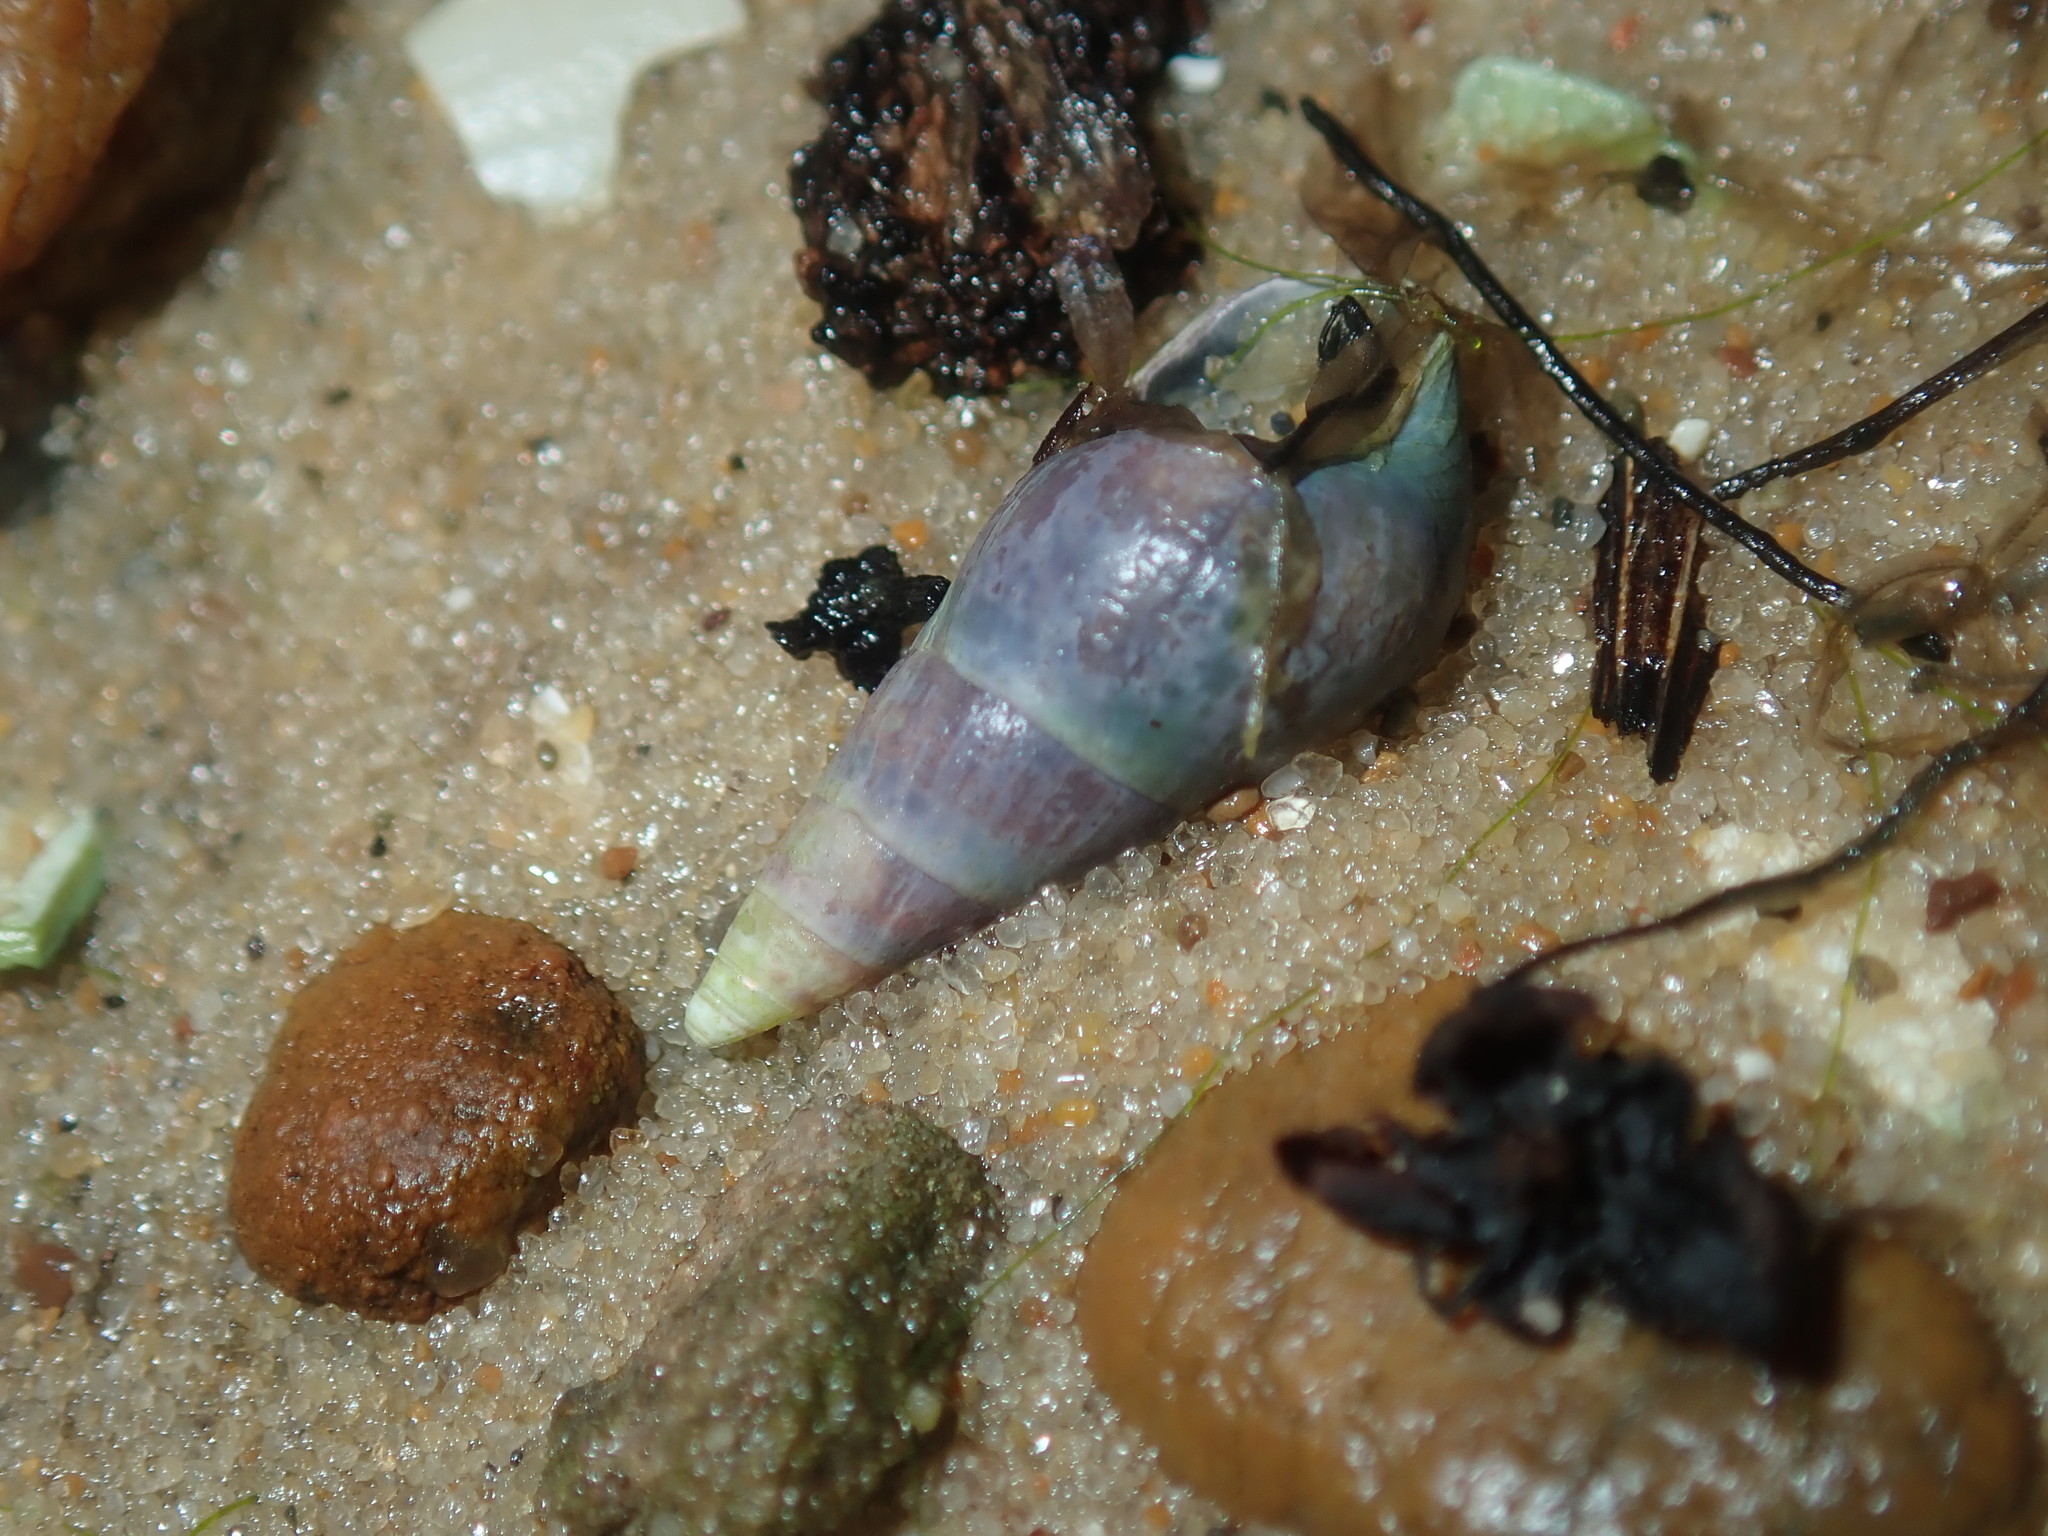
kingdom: Animalia
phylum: Mollusca
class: Gastropoda
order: Trochida
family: Trochidae
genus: Bankivia
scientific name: Bankivia fasciata
